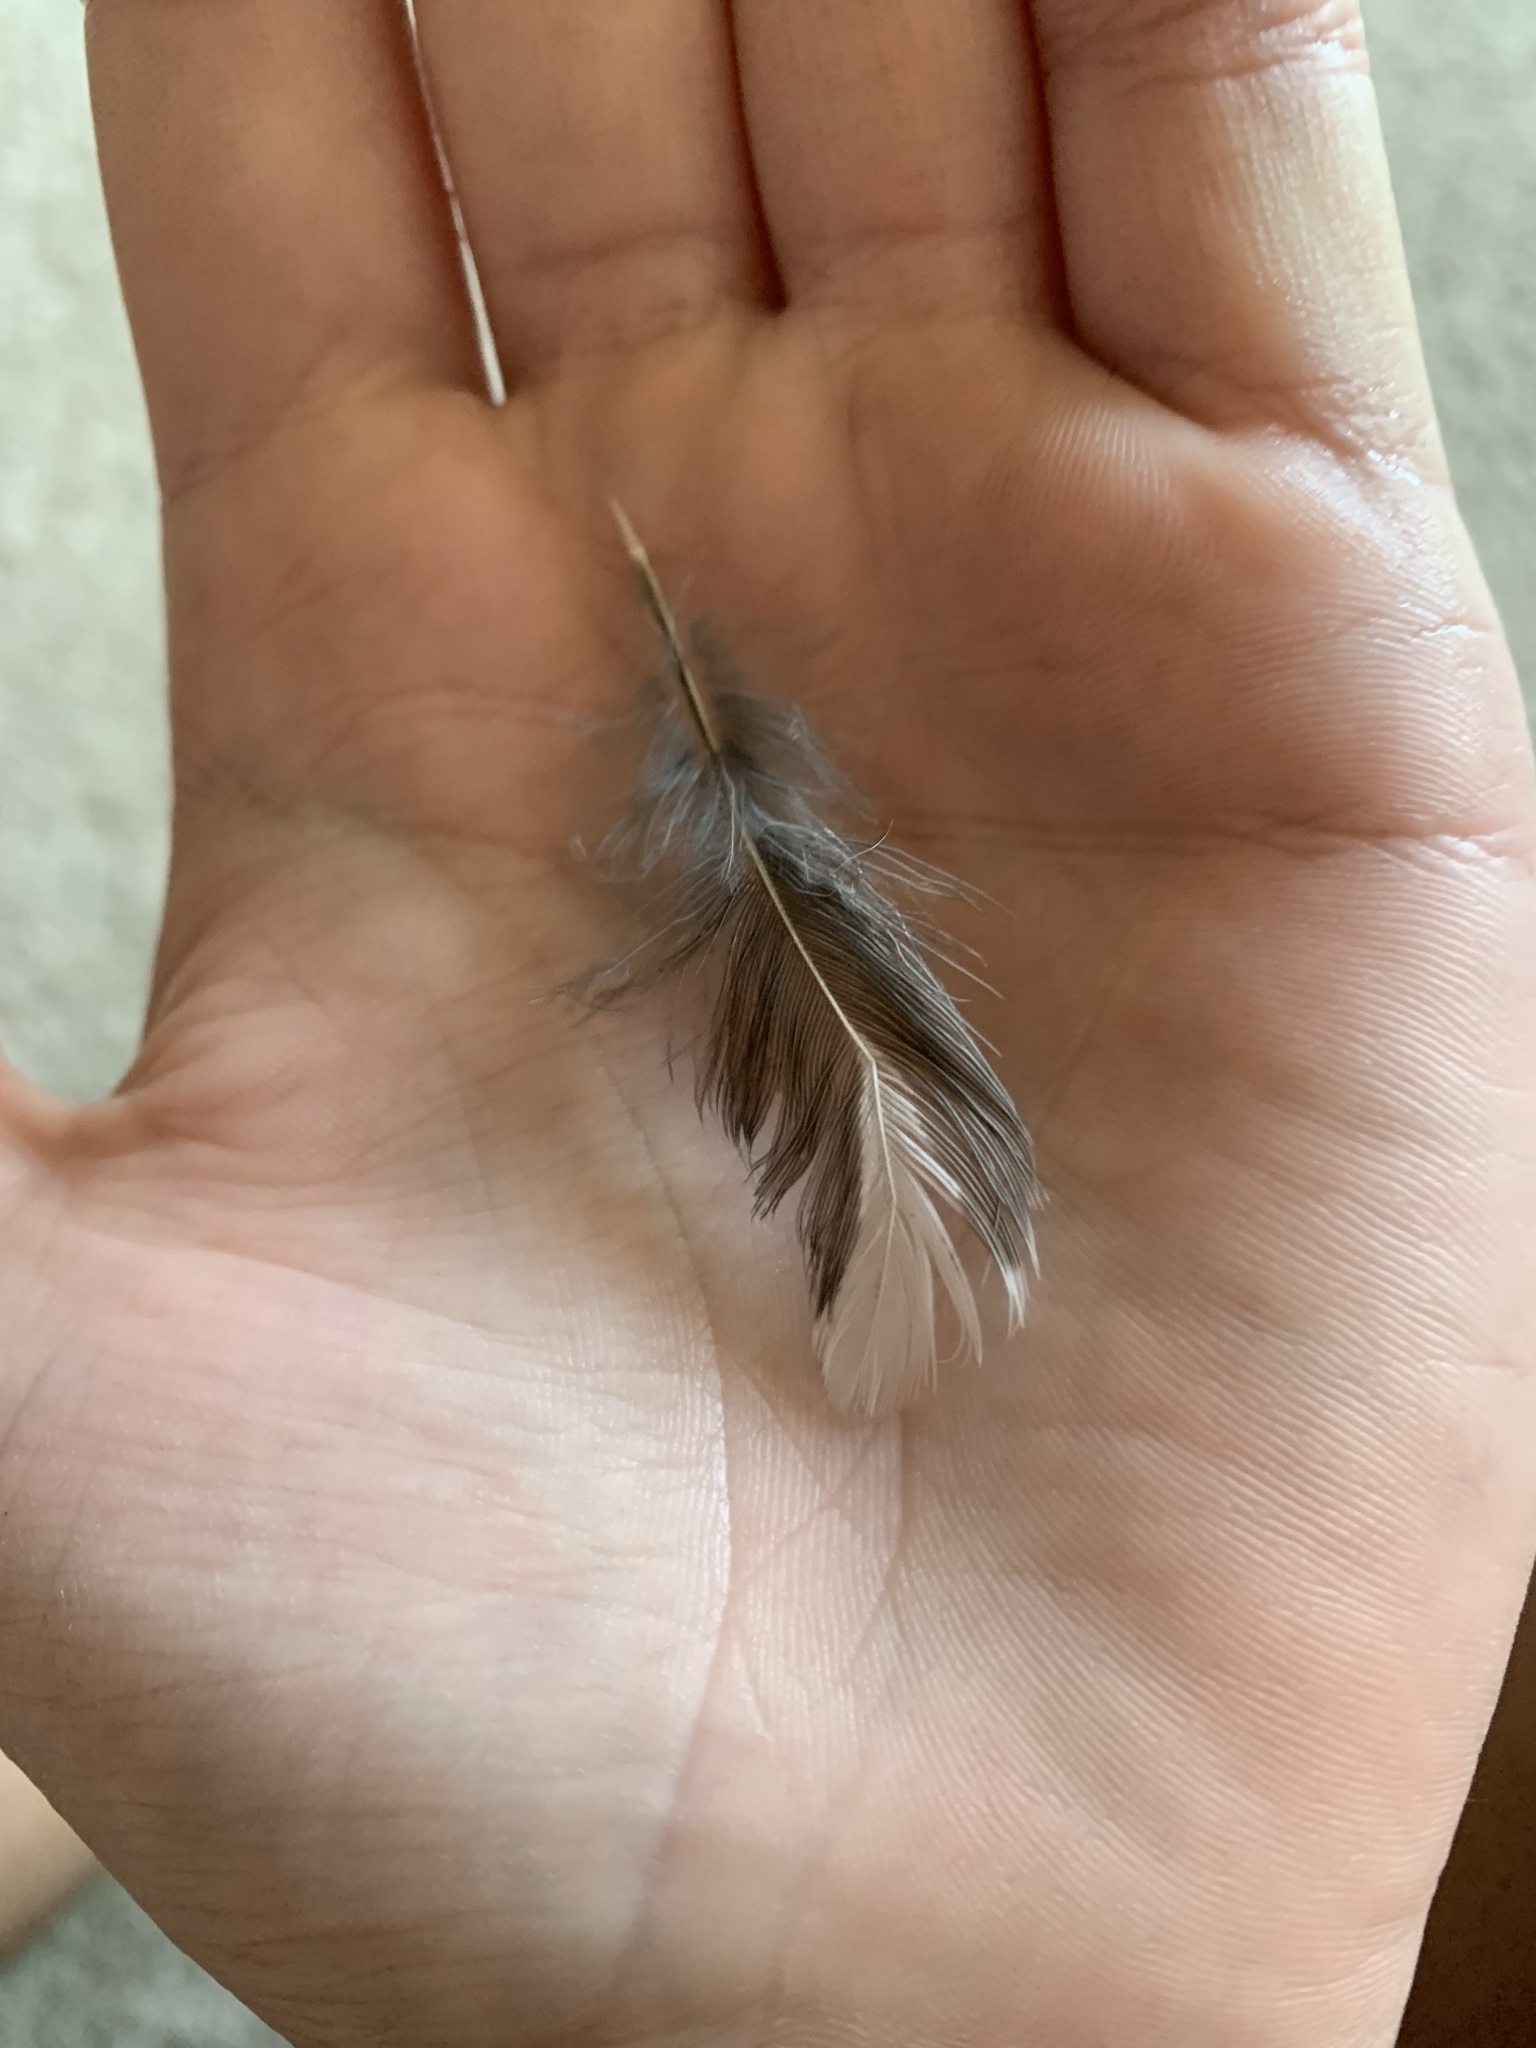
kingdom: Animalia
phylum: Chordata
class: Aves
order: Passeriformes
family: Turdidae
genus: Turdus
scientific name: Turdus migratorius
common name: American robin
